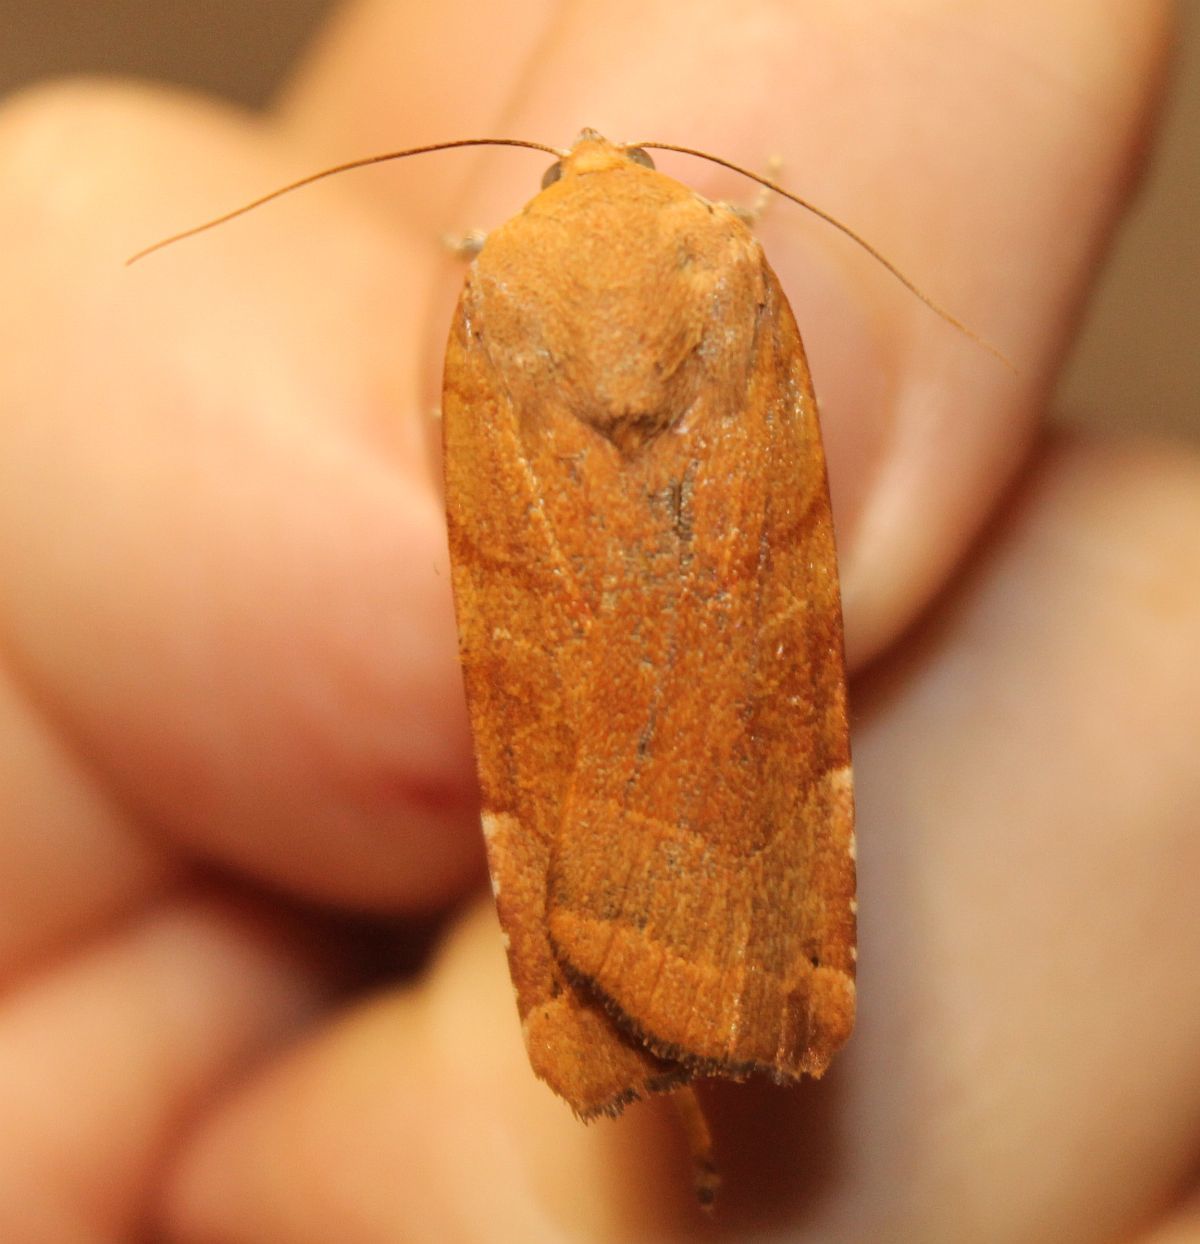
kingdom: Animalia
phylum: Arthropoda
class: Insecta
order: Lepidoptera
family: Noctuidae
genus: Noctua
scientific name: Noctua fimbriata
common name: Broad-bordered yellow underwing
